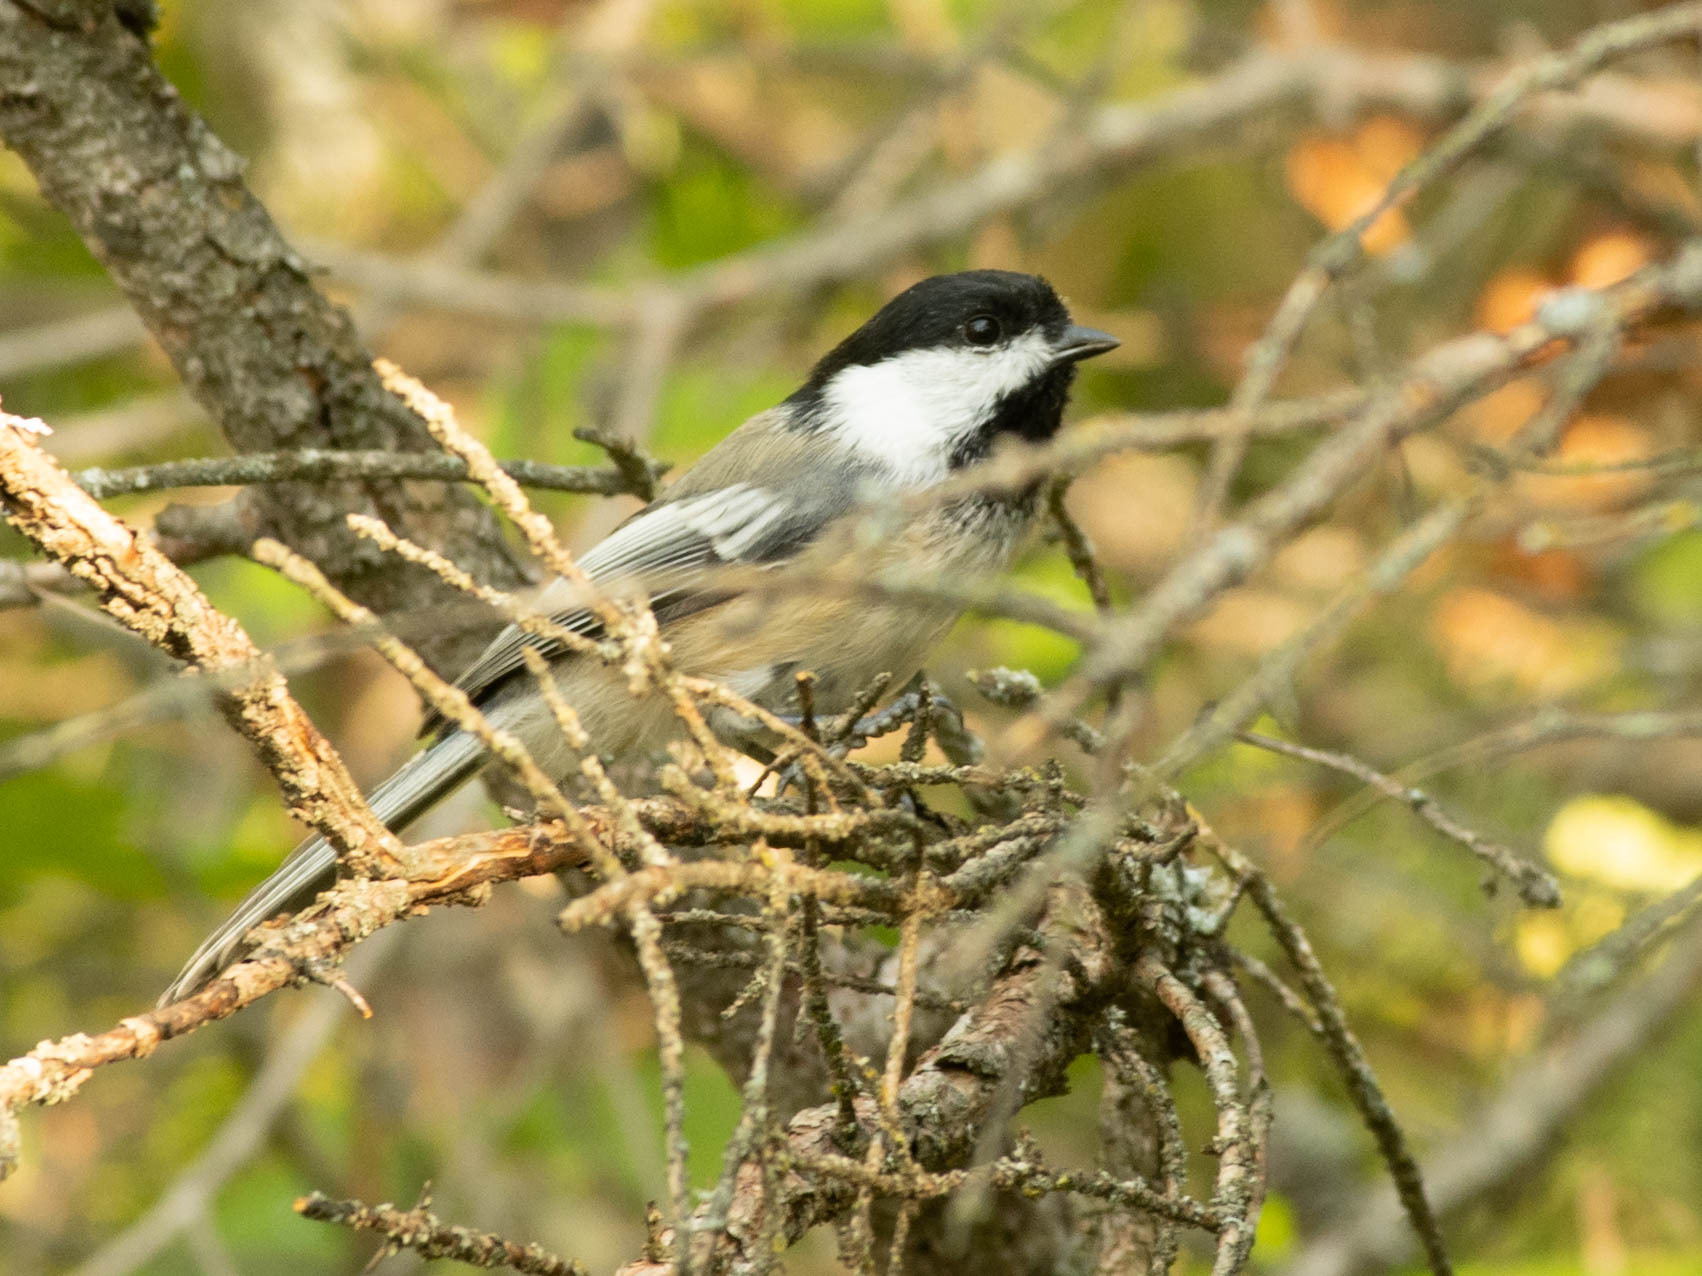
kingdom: Animalia
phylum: Chordata
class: Aves
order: Passeriformes
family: Paridae
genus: Poecile
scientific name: Poecile atricapillus
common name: Black-capped chickadee
